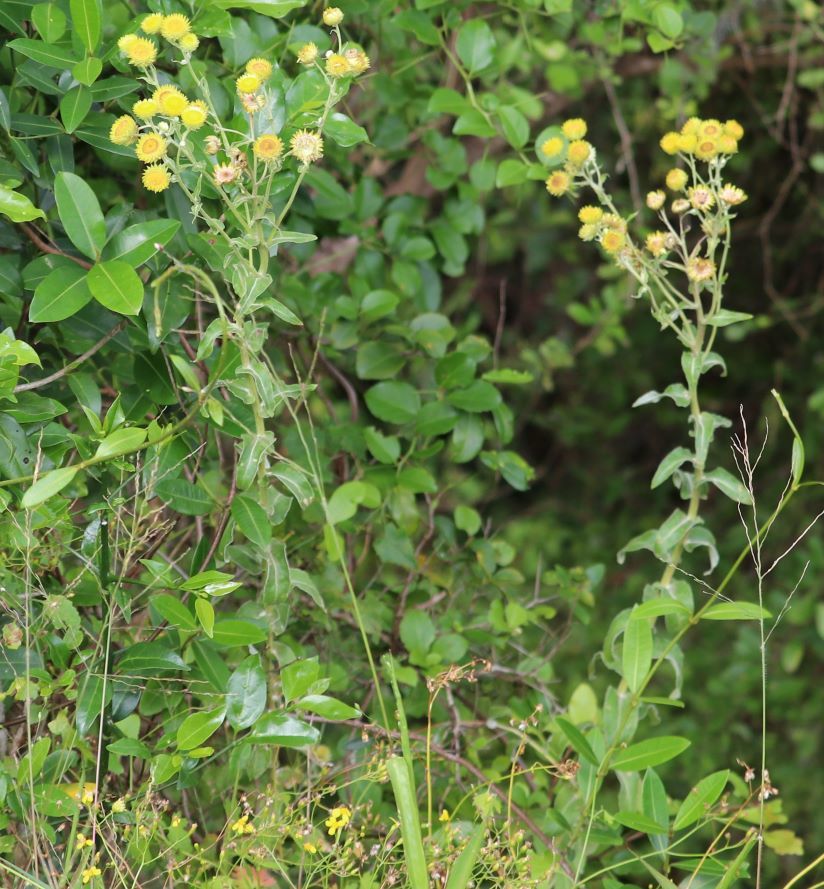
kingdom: Plantae
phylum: Tracheophyta
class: Magnoliopsida
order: Asterales
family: Asteraceae
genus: Helichrysum
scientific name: Helichrysum foetidum
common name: Stinking everlasting
